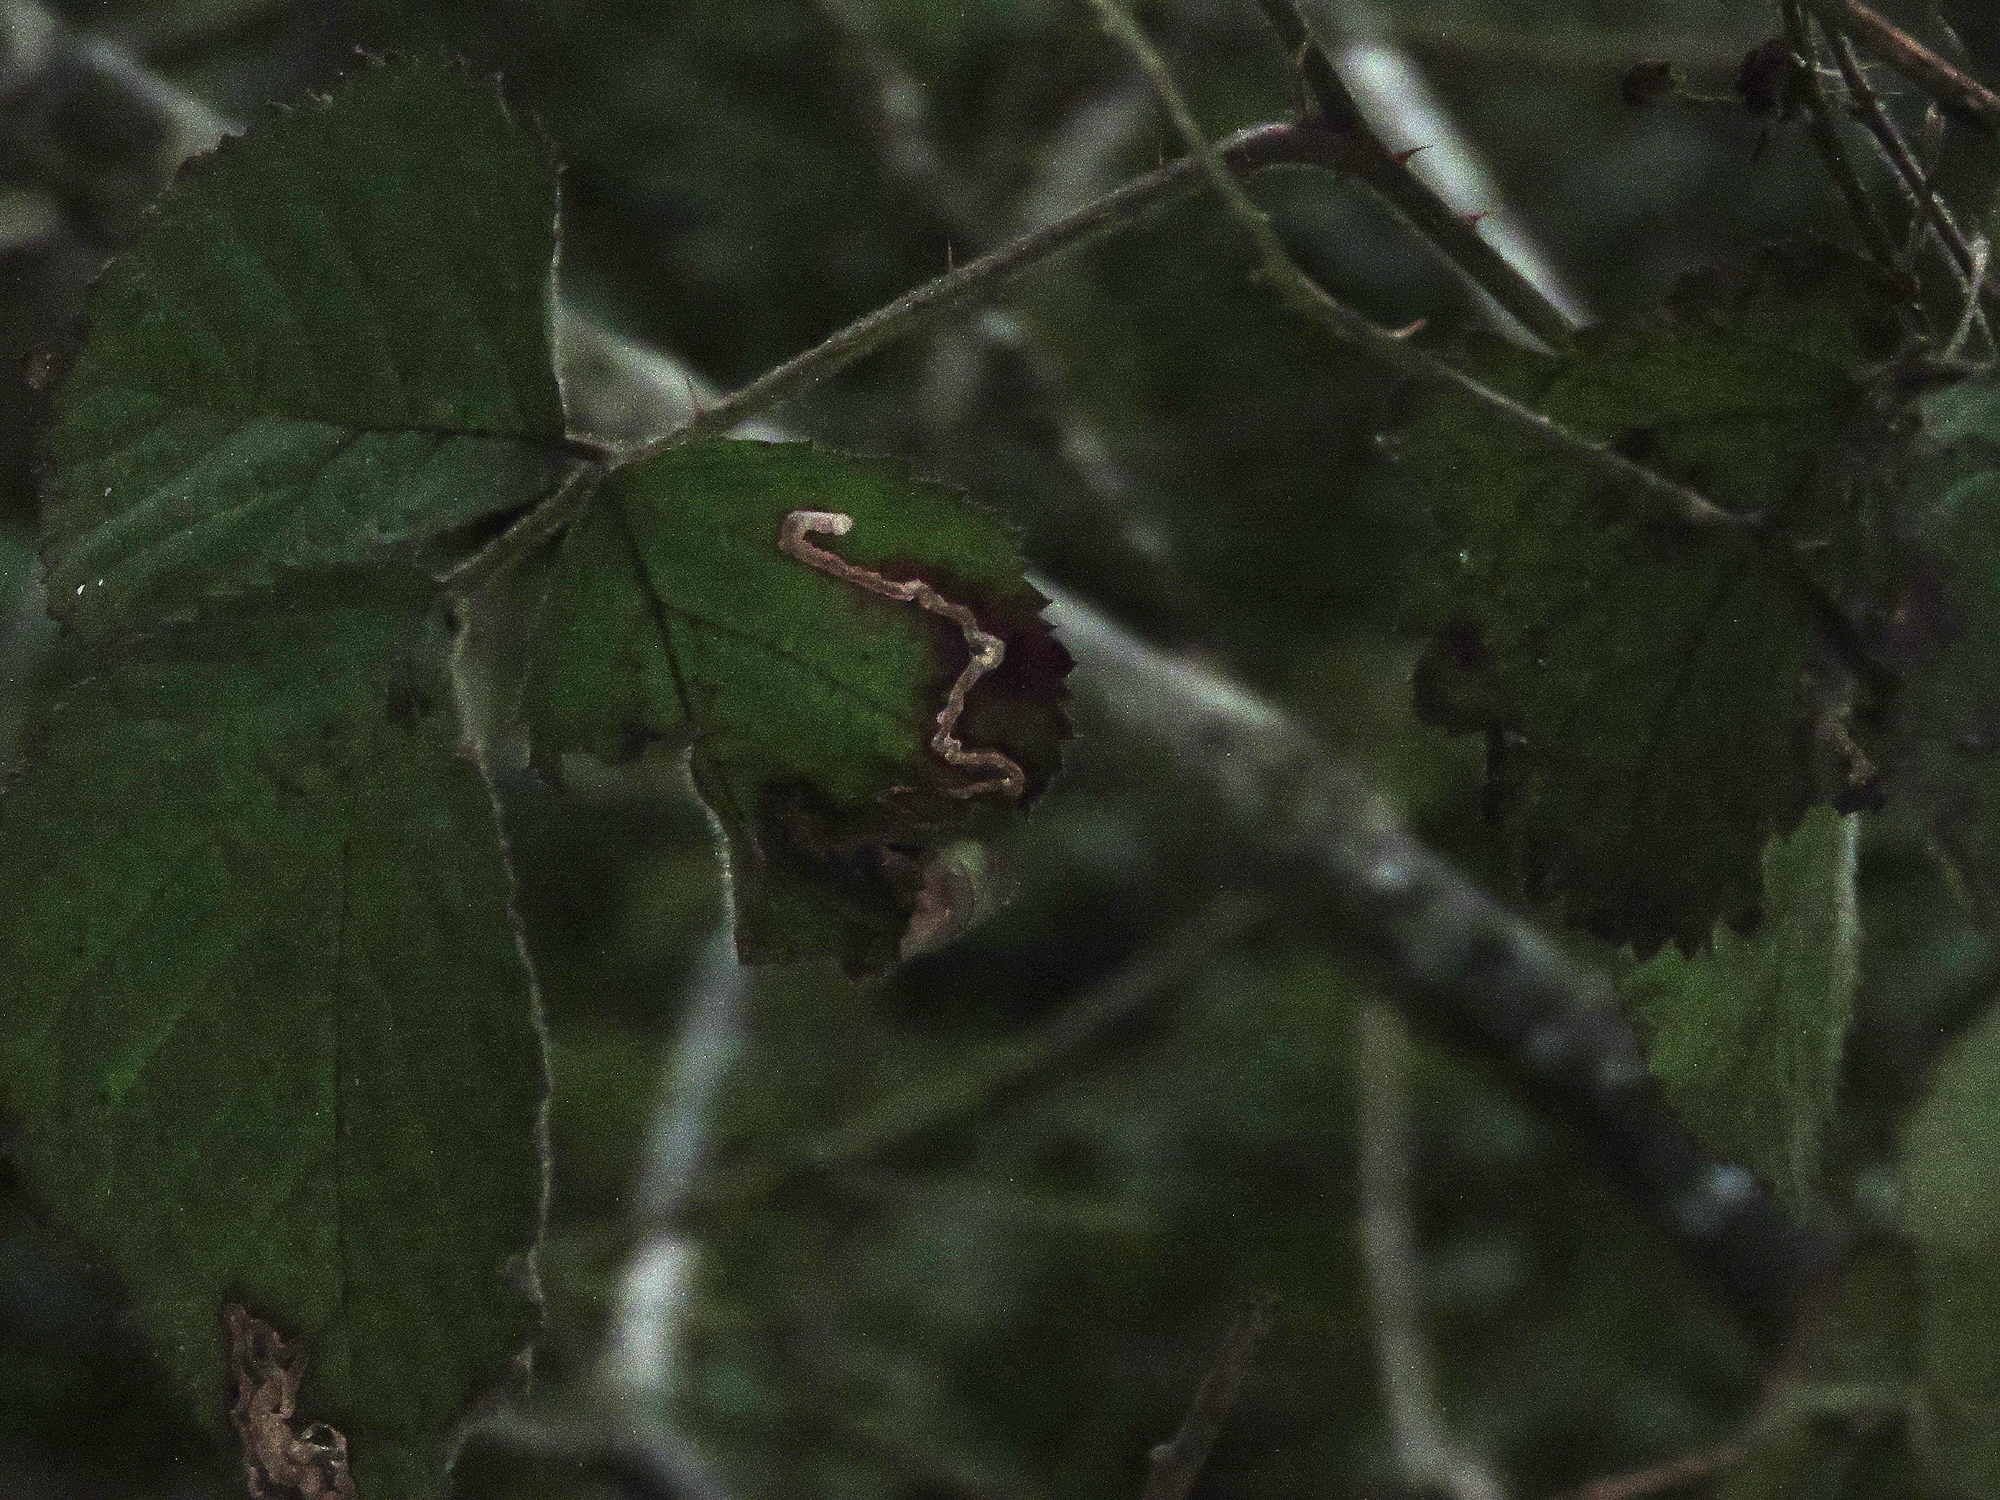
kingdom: Animalia
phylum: Arthropoda
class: Insecta
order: Lepidoptera
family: Nepticulidae
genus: Stigmella
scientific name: Stigmella aurella
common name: Golden pigmy
